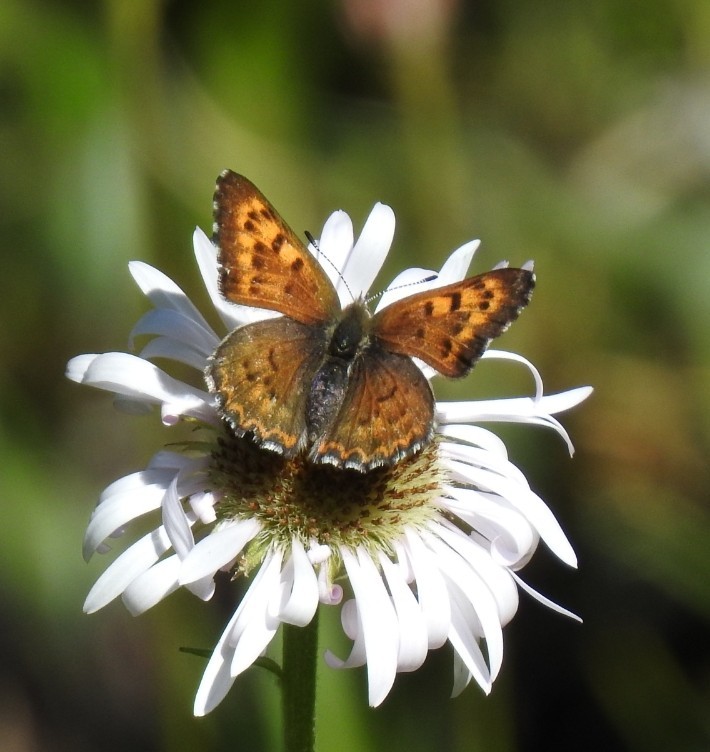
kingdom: Animalia
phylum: Arthropoda
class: Insecta
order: Lepidoptera
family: Lycaenidae
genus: Tharsalea
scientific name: Tharsalea mariposa
